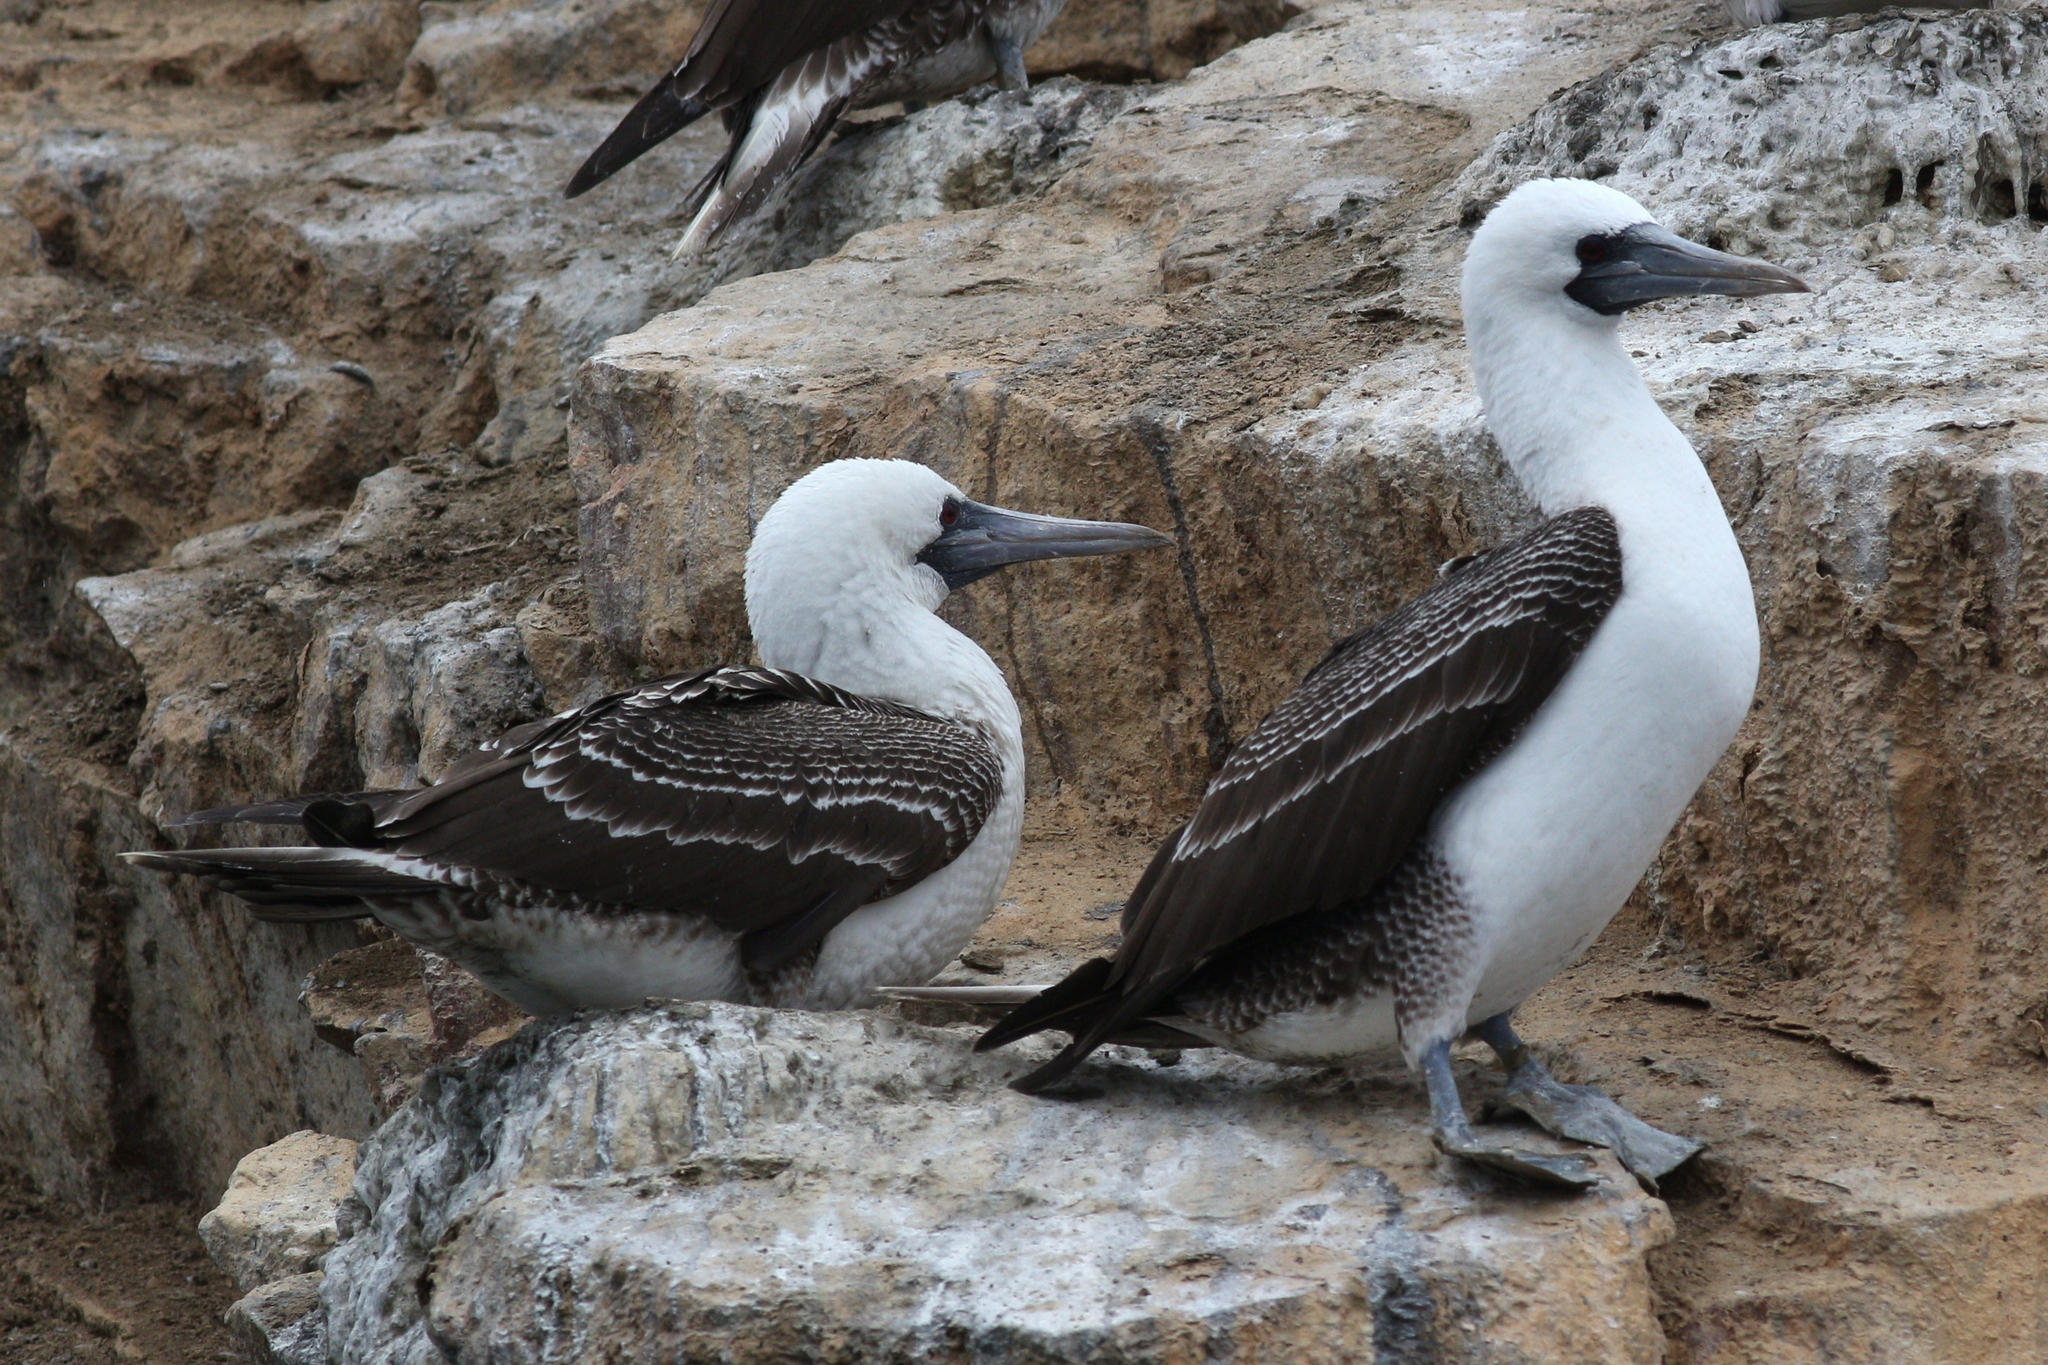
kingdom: Animalia
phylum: Chordata
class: Aves
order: Suliformes
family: Sulidae
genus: Sula
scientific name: Sula variegata
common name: Peruvian booby
